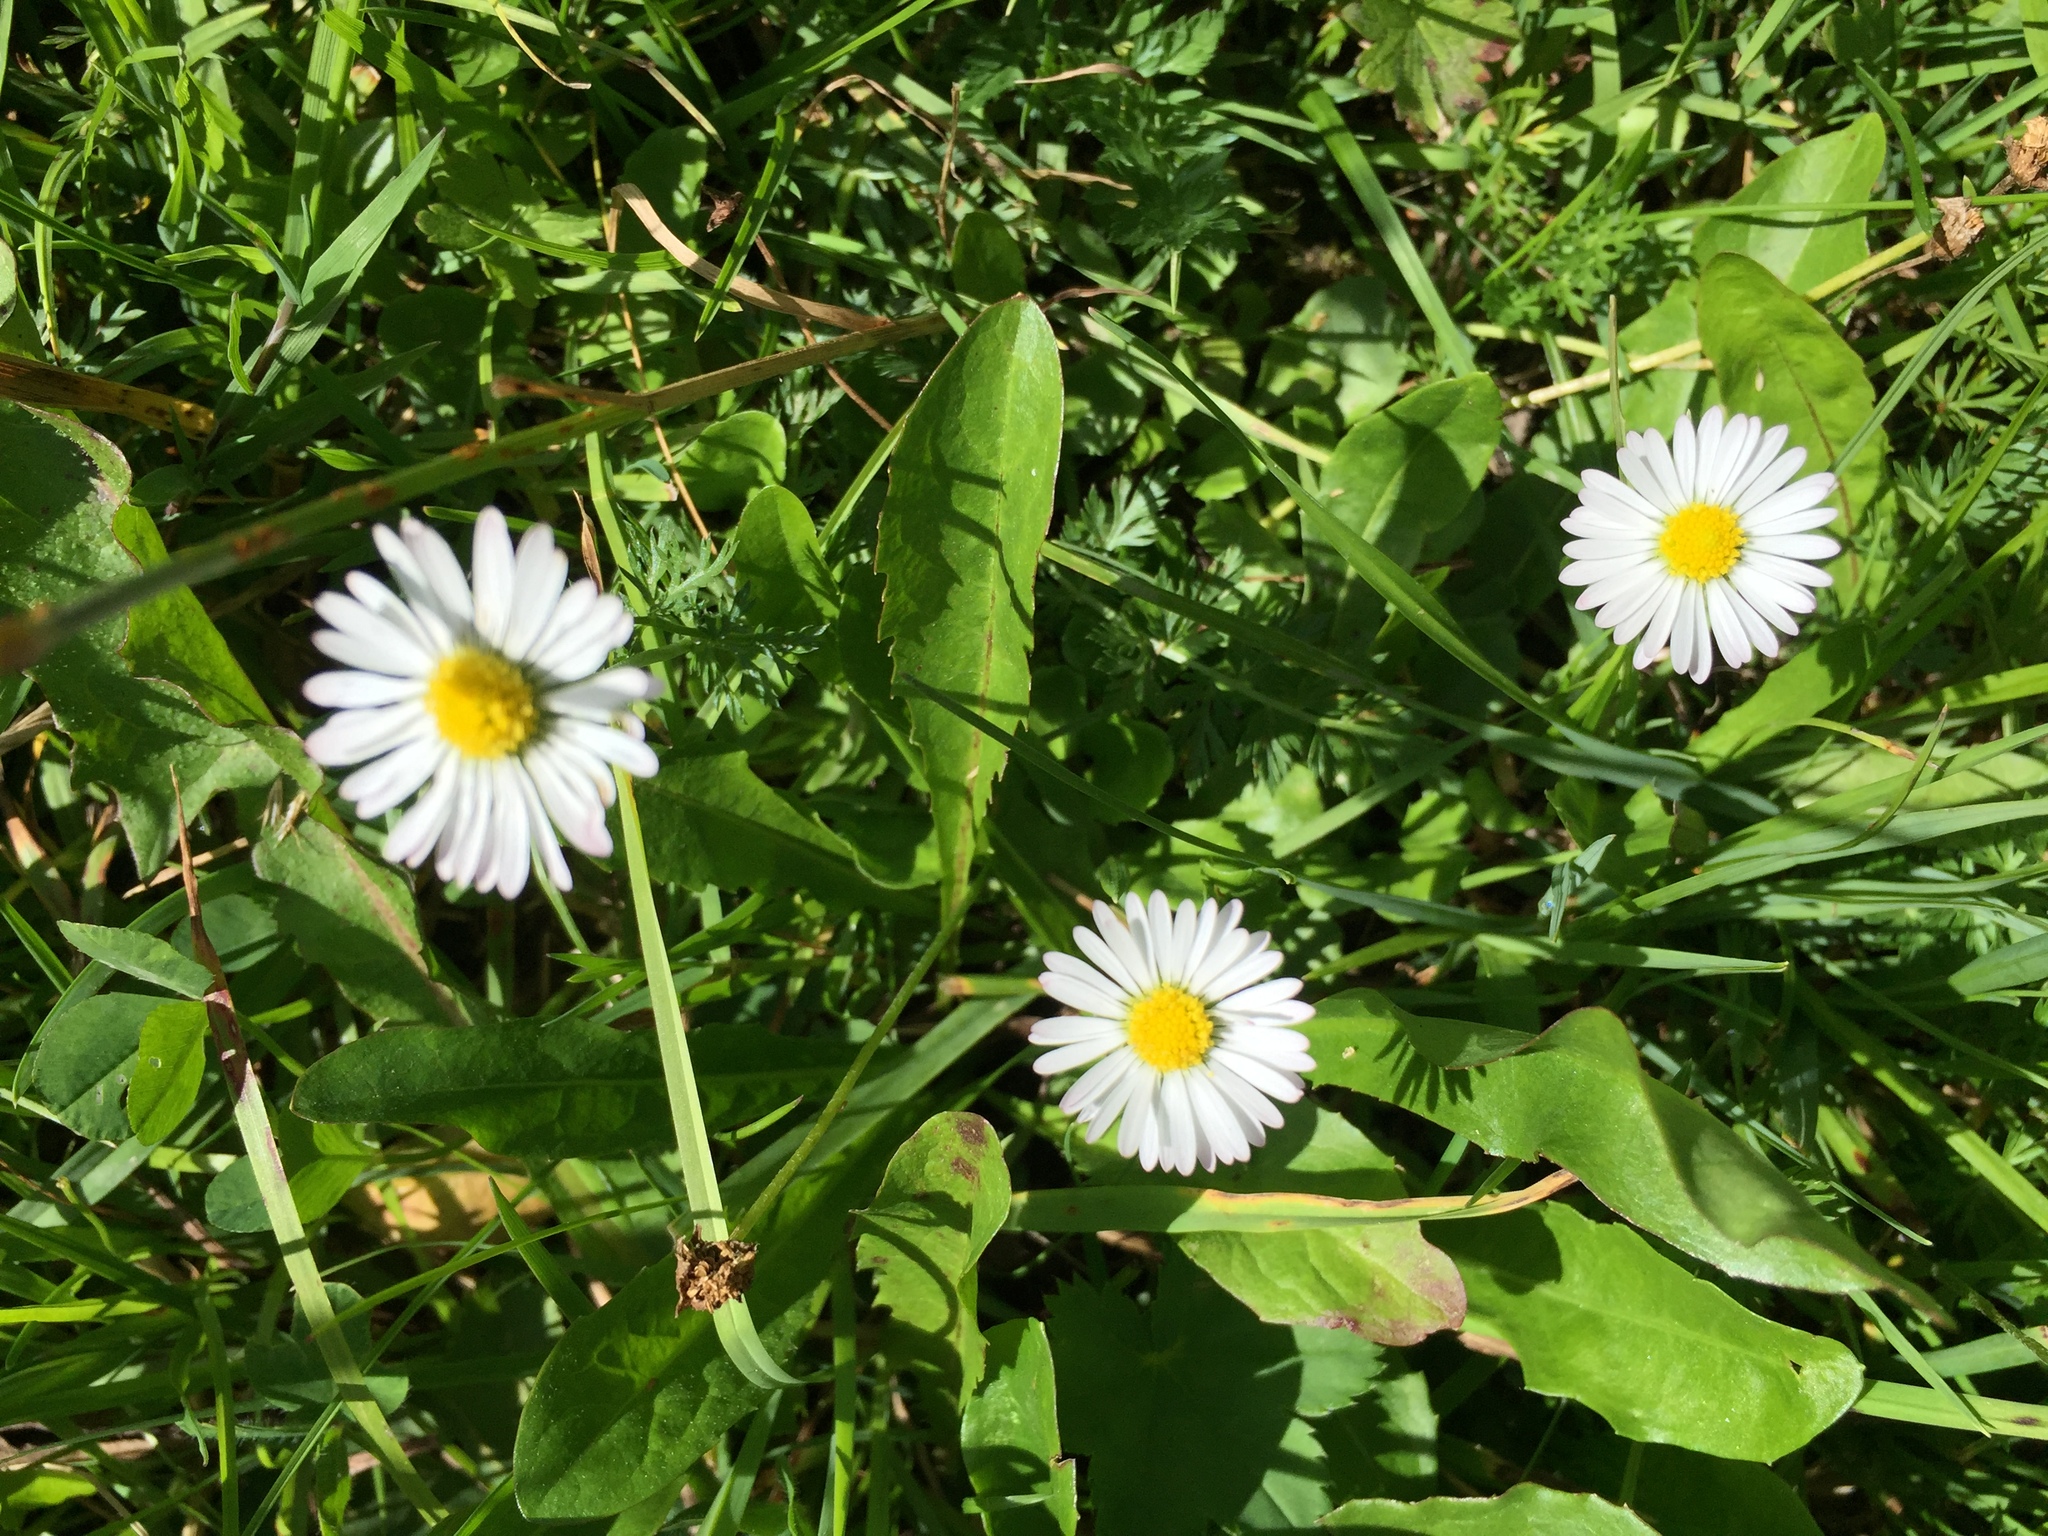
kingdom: Plantae
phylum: Tracheophyta
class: Magnoliopsida
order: Asterales
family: Asteraceae
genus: Bellis
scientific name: Bellis perennis
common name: Lawndaisy
